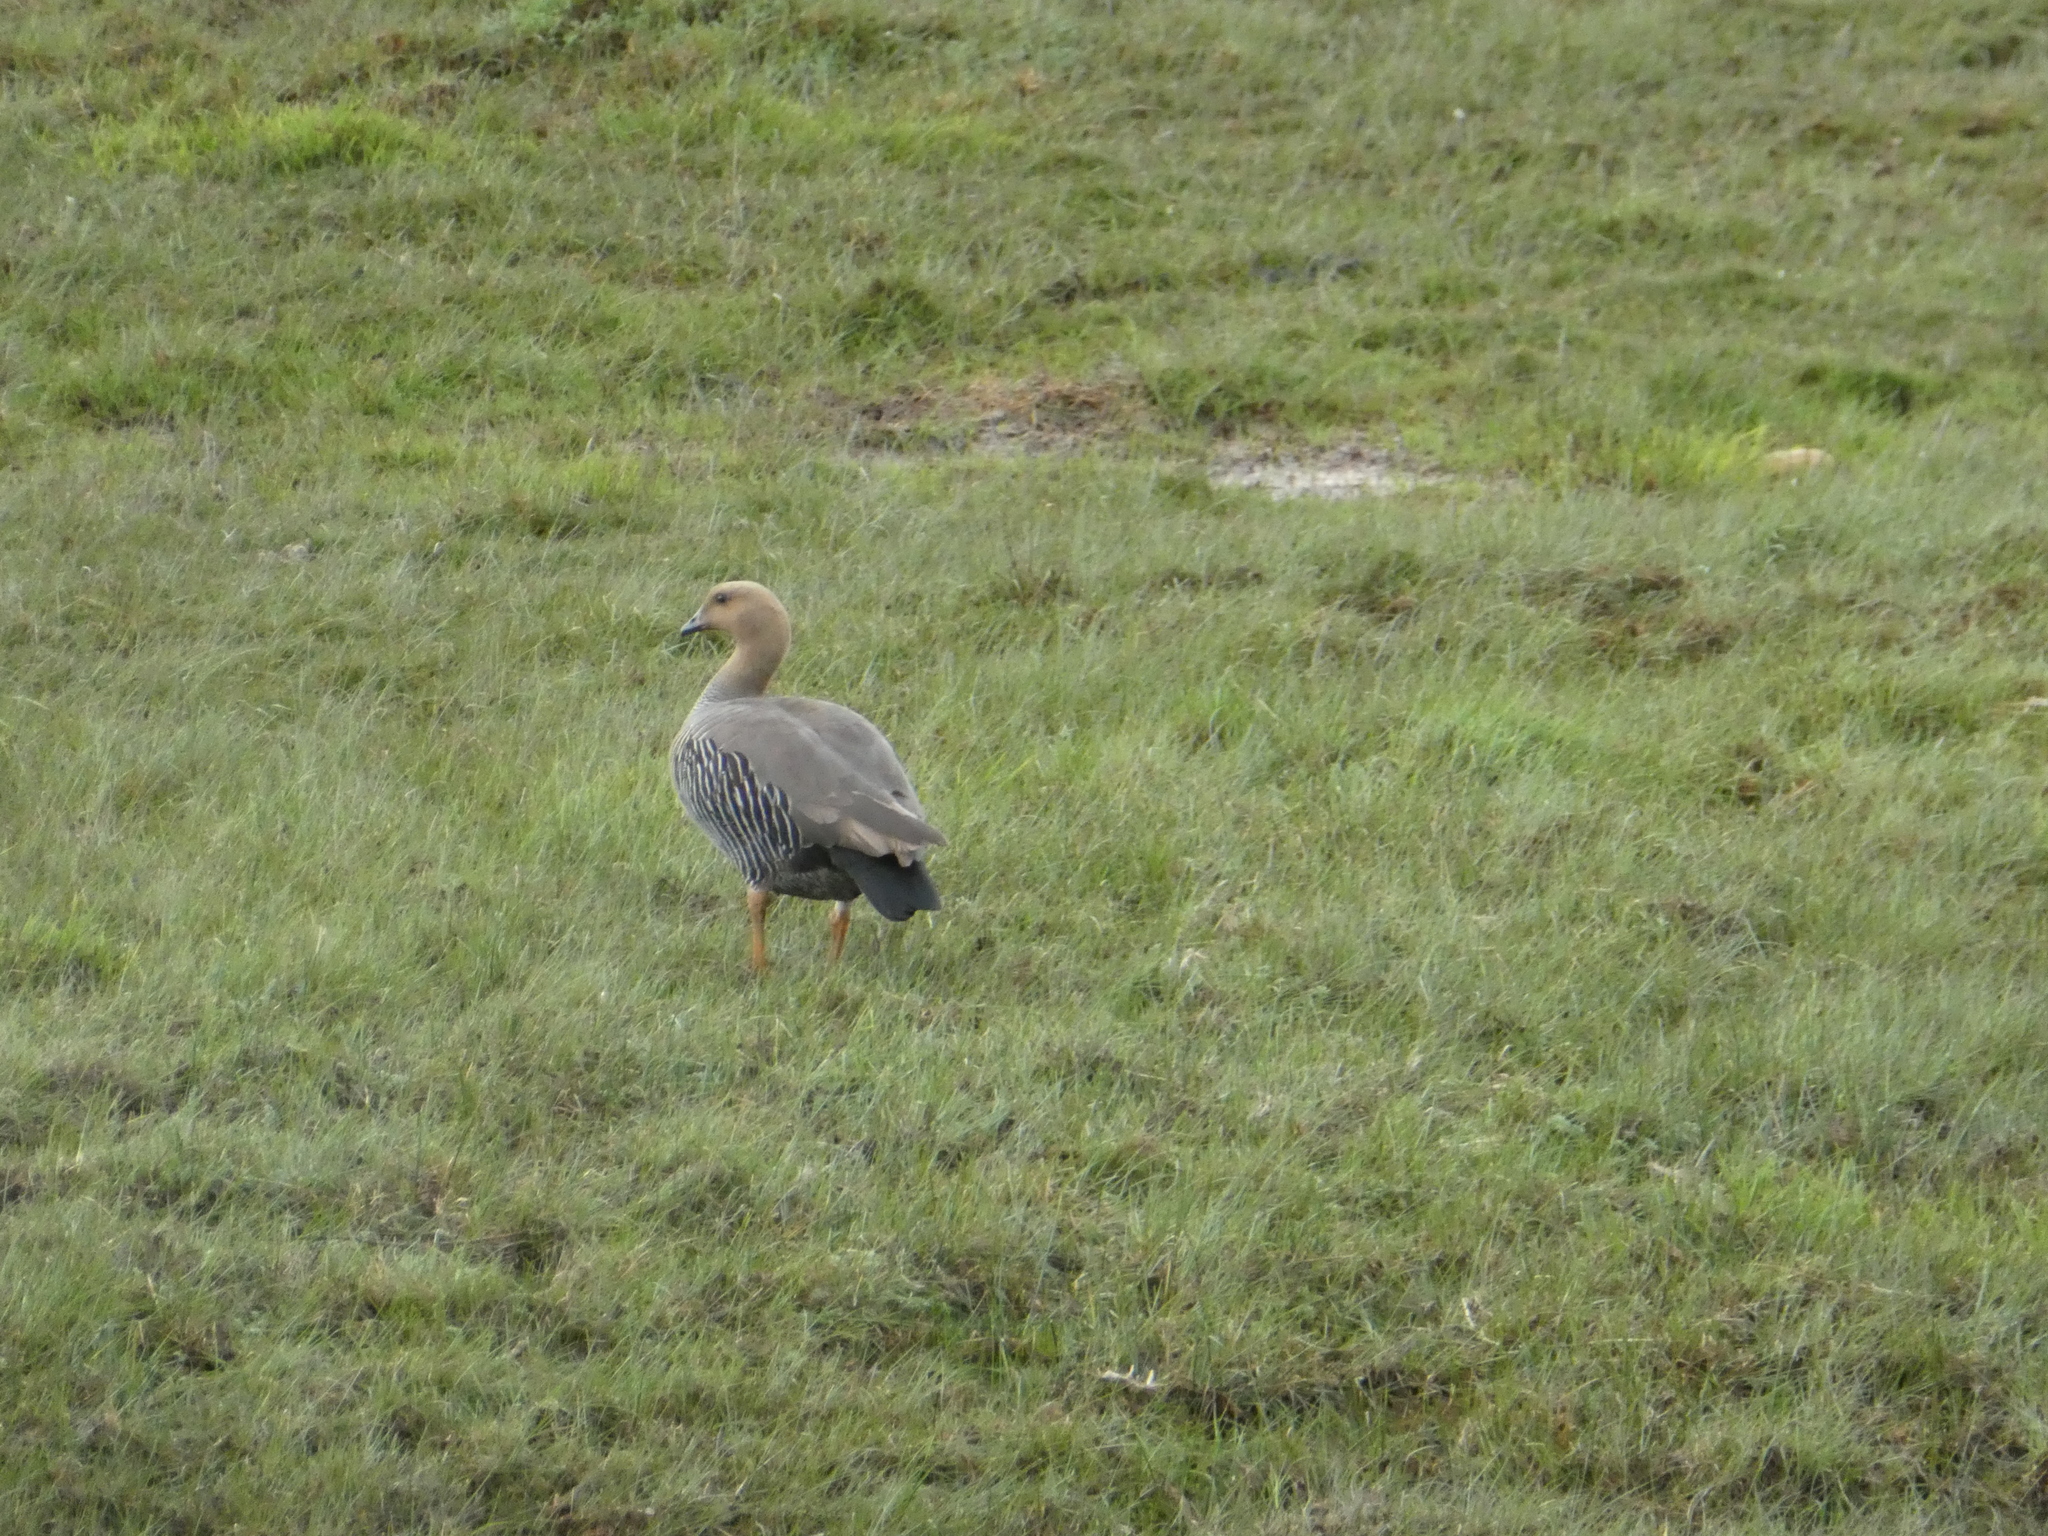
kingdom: Animalia
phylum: Chordata
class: Aves
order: Anseriformes
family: Anatidae
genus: Chloephaga
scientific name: Chloephaga picta
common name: Upland goose
